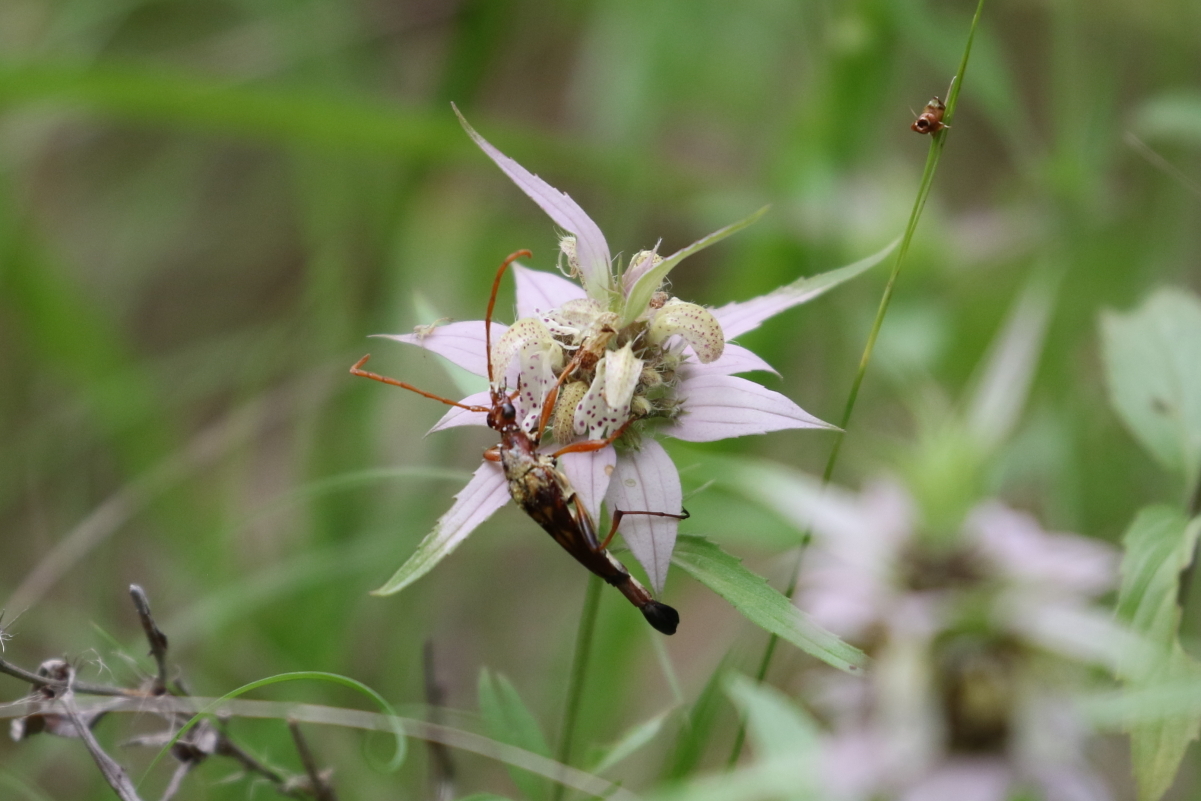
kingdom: Animalia
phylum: Arthropoda
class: Insecta
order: Coleoptera
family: Cerambycidae
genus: Strangalia
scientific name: Strangalia virilis
